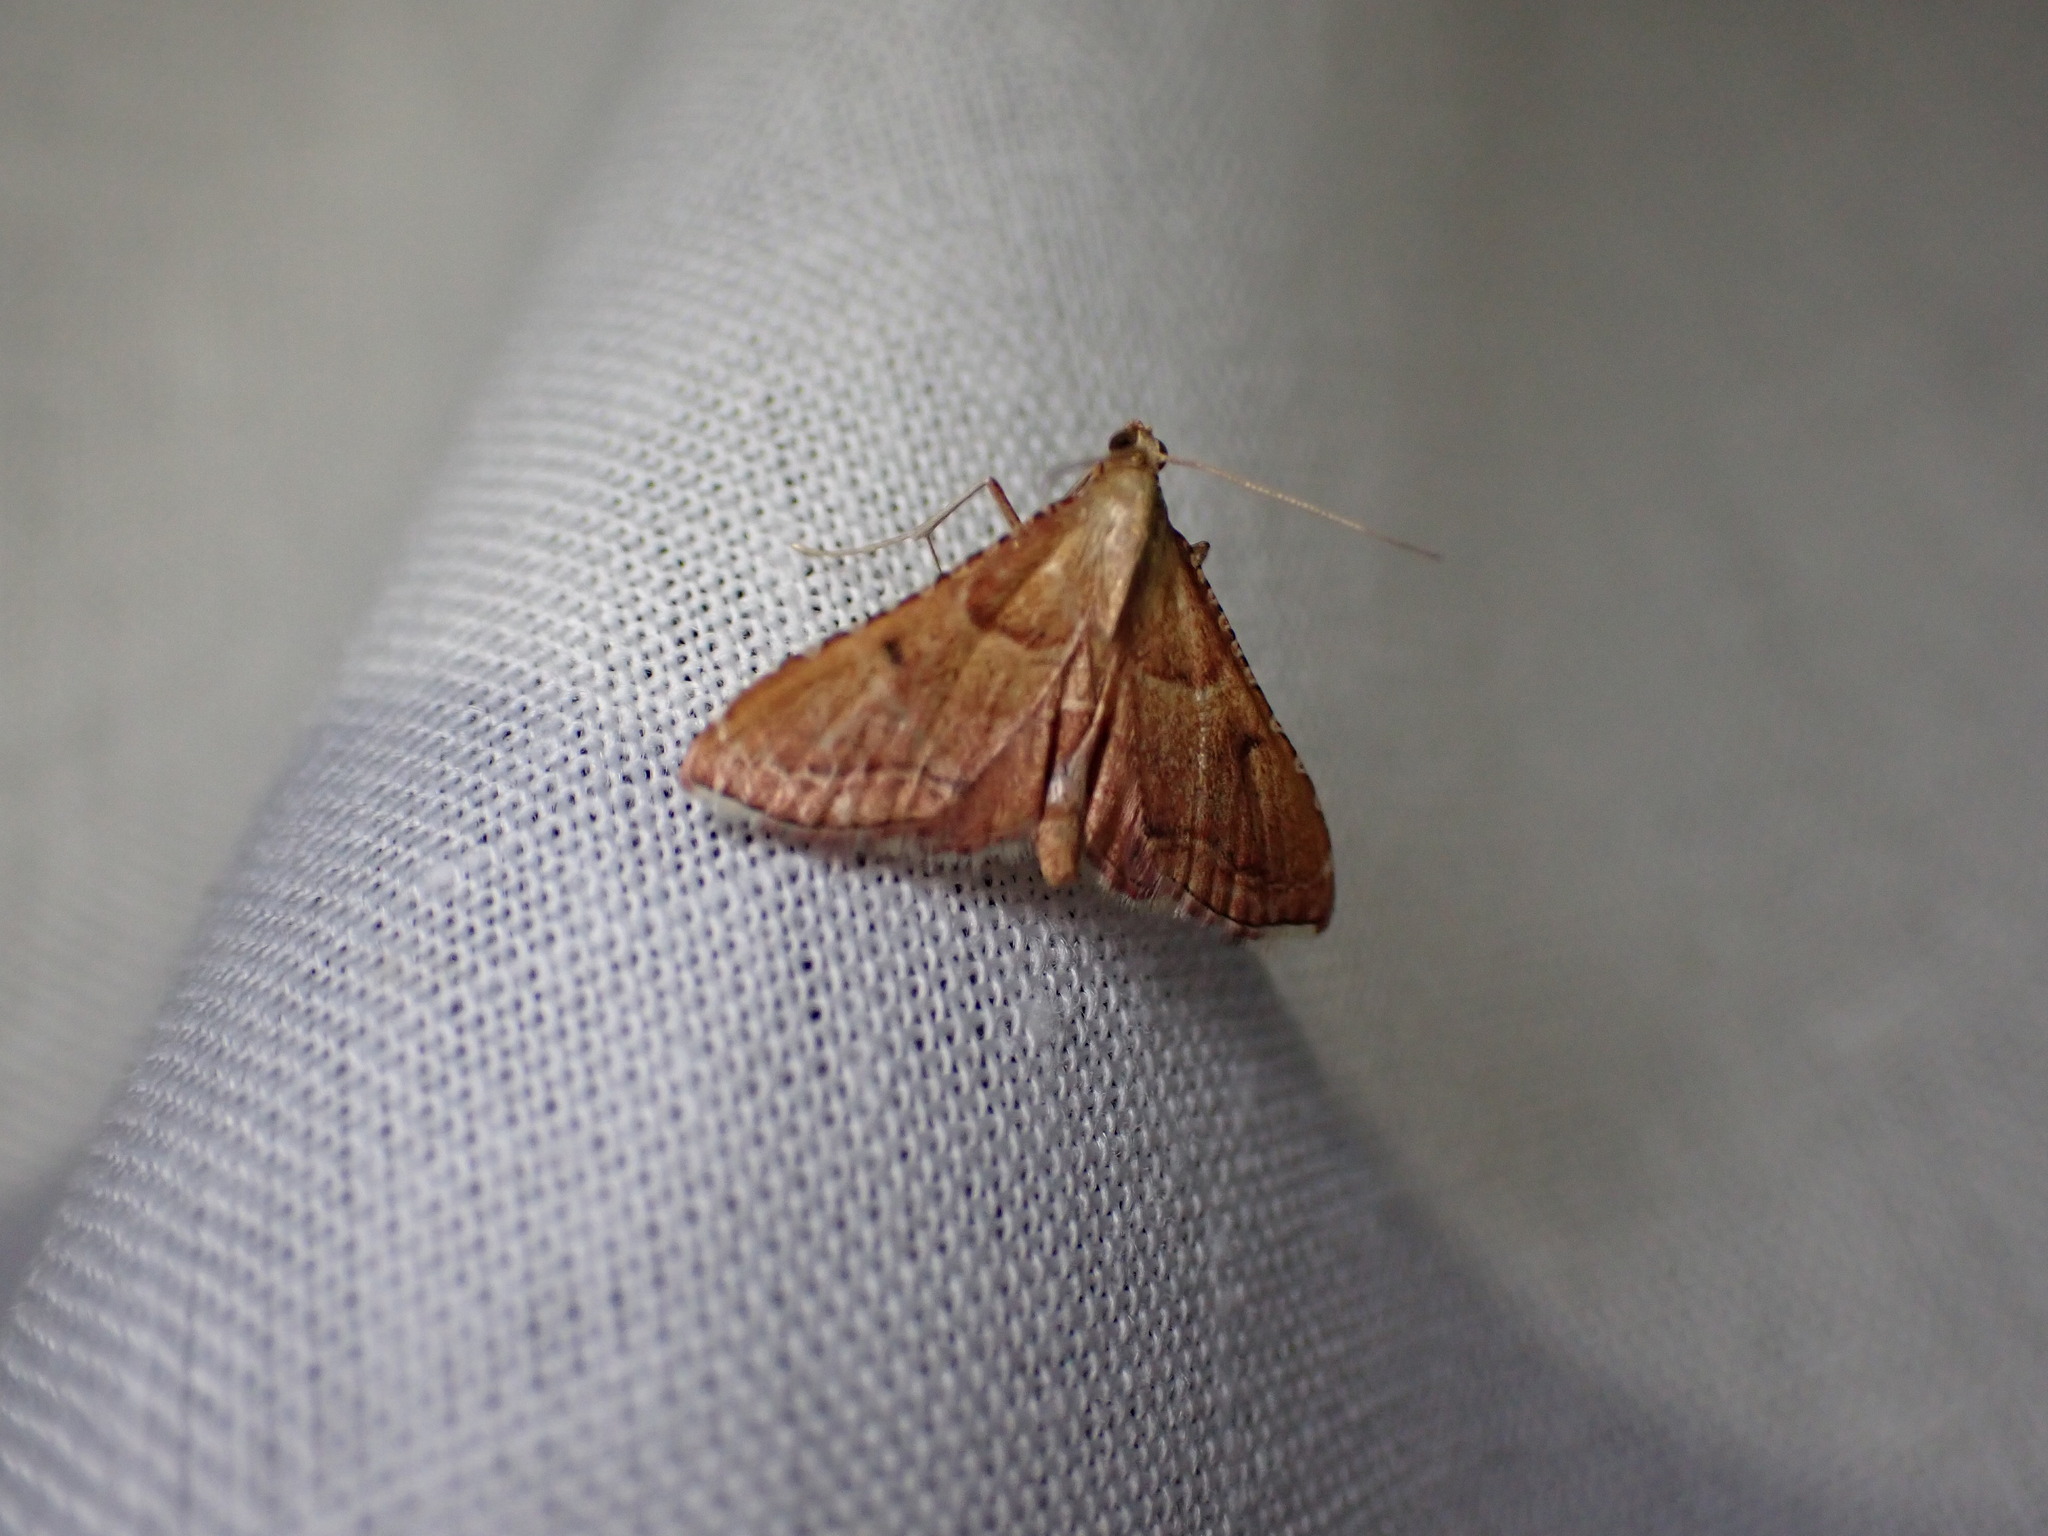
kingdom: Animalia
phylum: Arthropoda
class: Insecta
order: Lepidoptera
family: Pyralidae
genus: Endotricha
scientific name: Endotricha flammealis
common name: Rosy tabby
